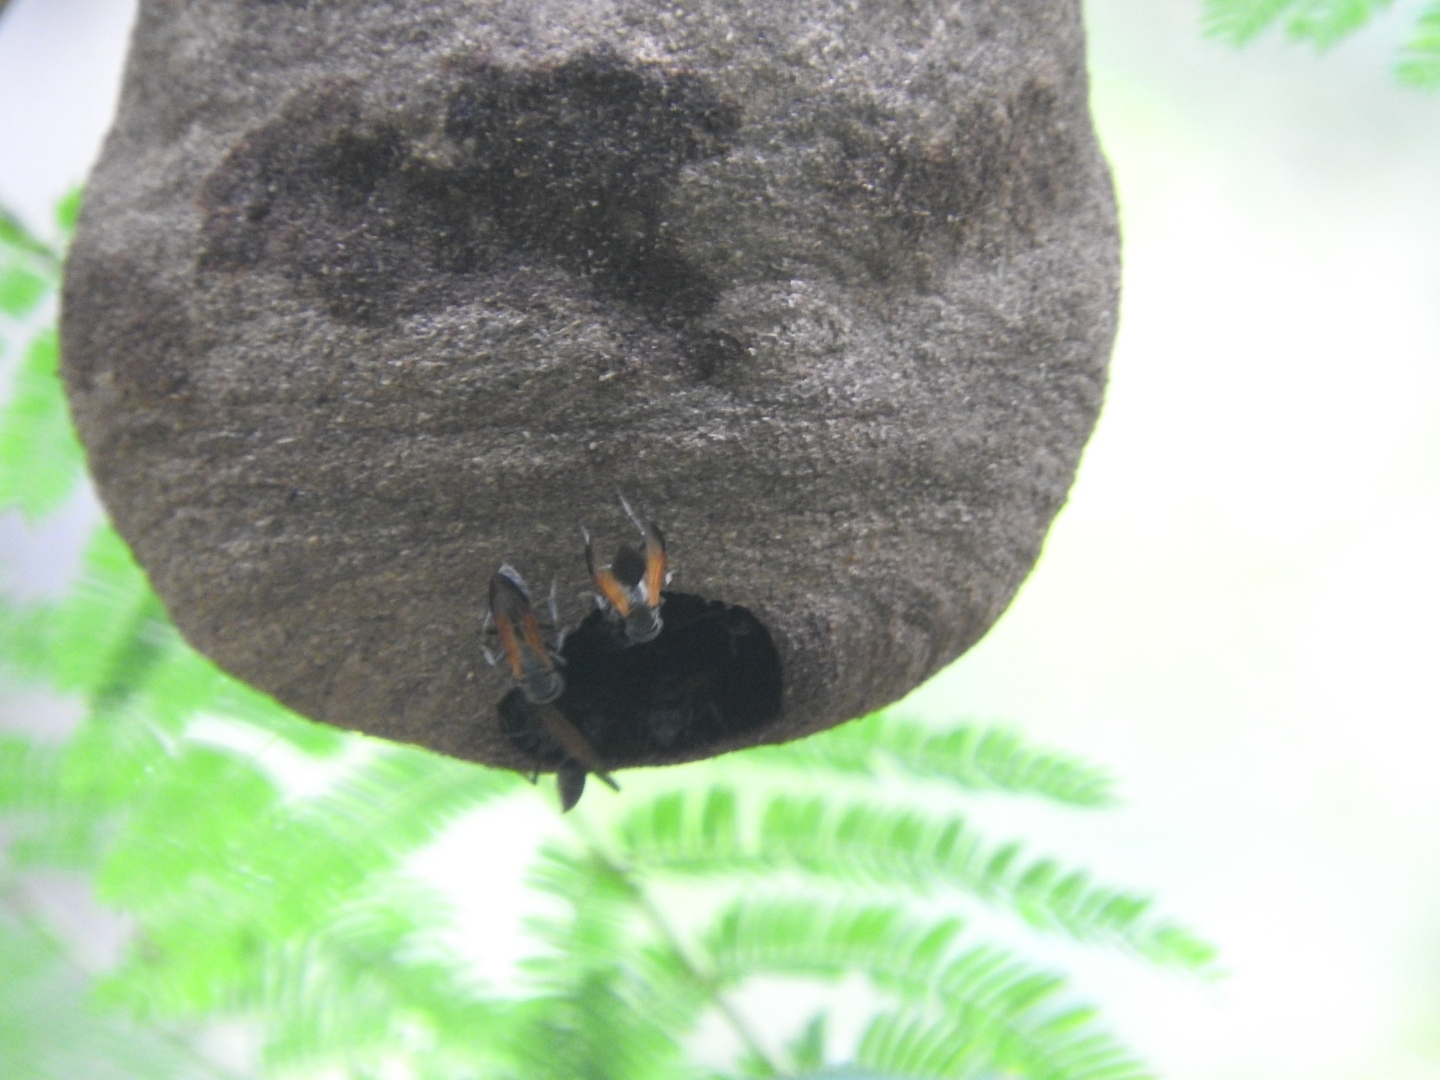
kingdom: Animalia
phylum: Arthropoda
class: Insecta
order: Hymenoptera
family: Eumenidae
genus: Polybia
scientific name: Polybia rejecta
